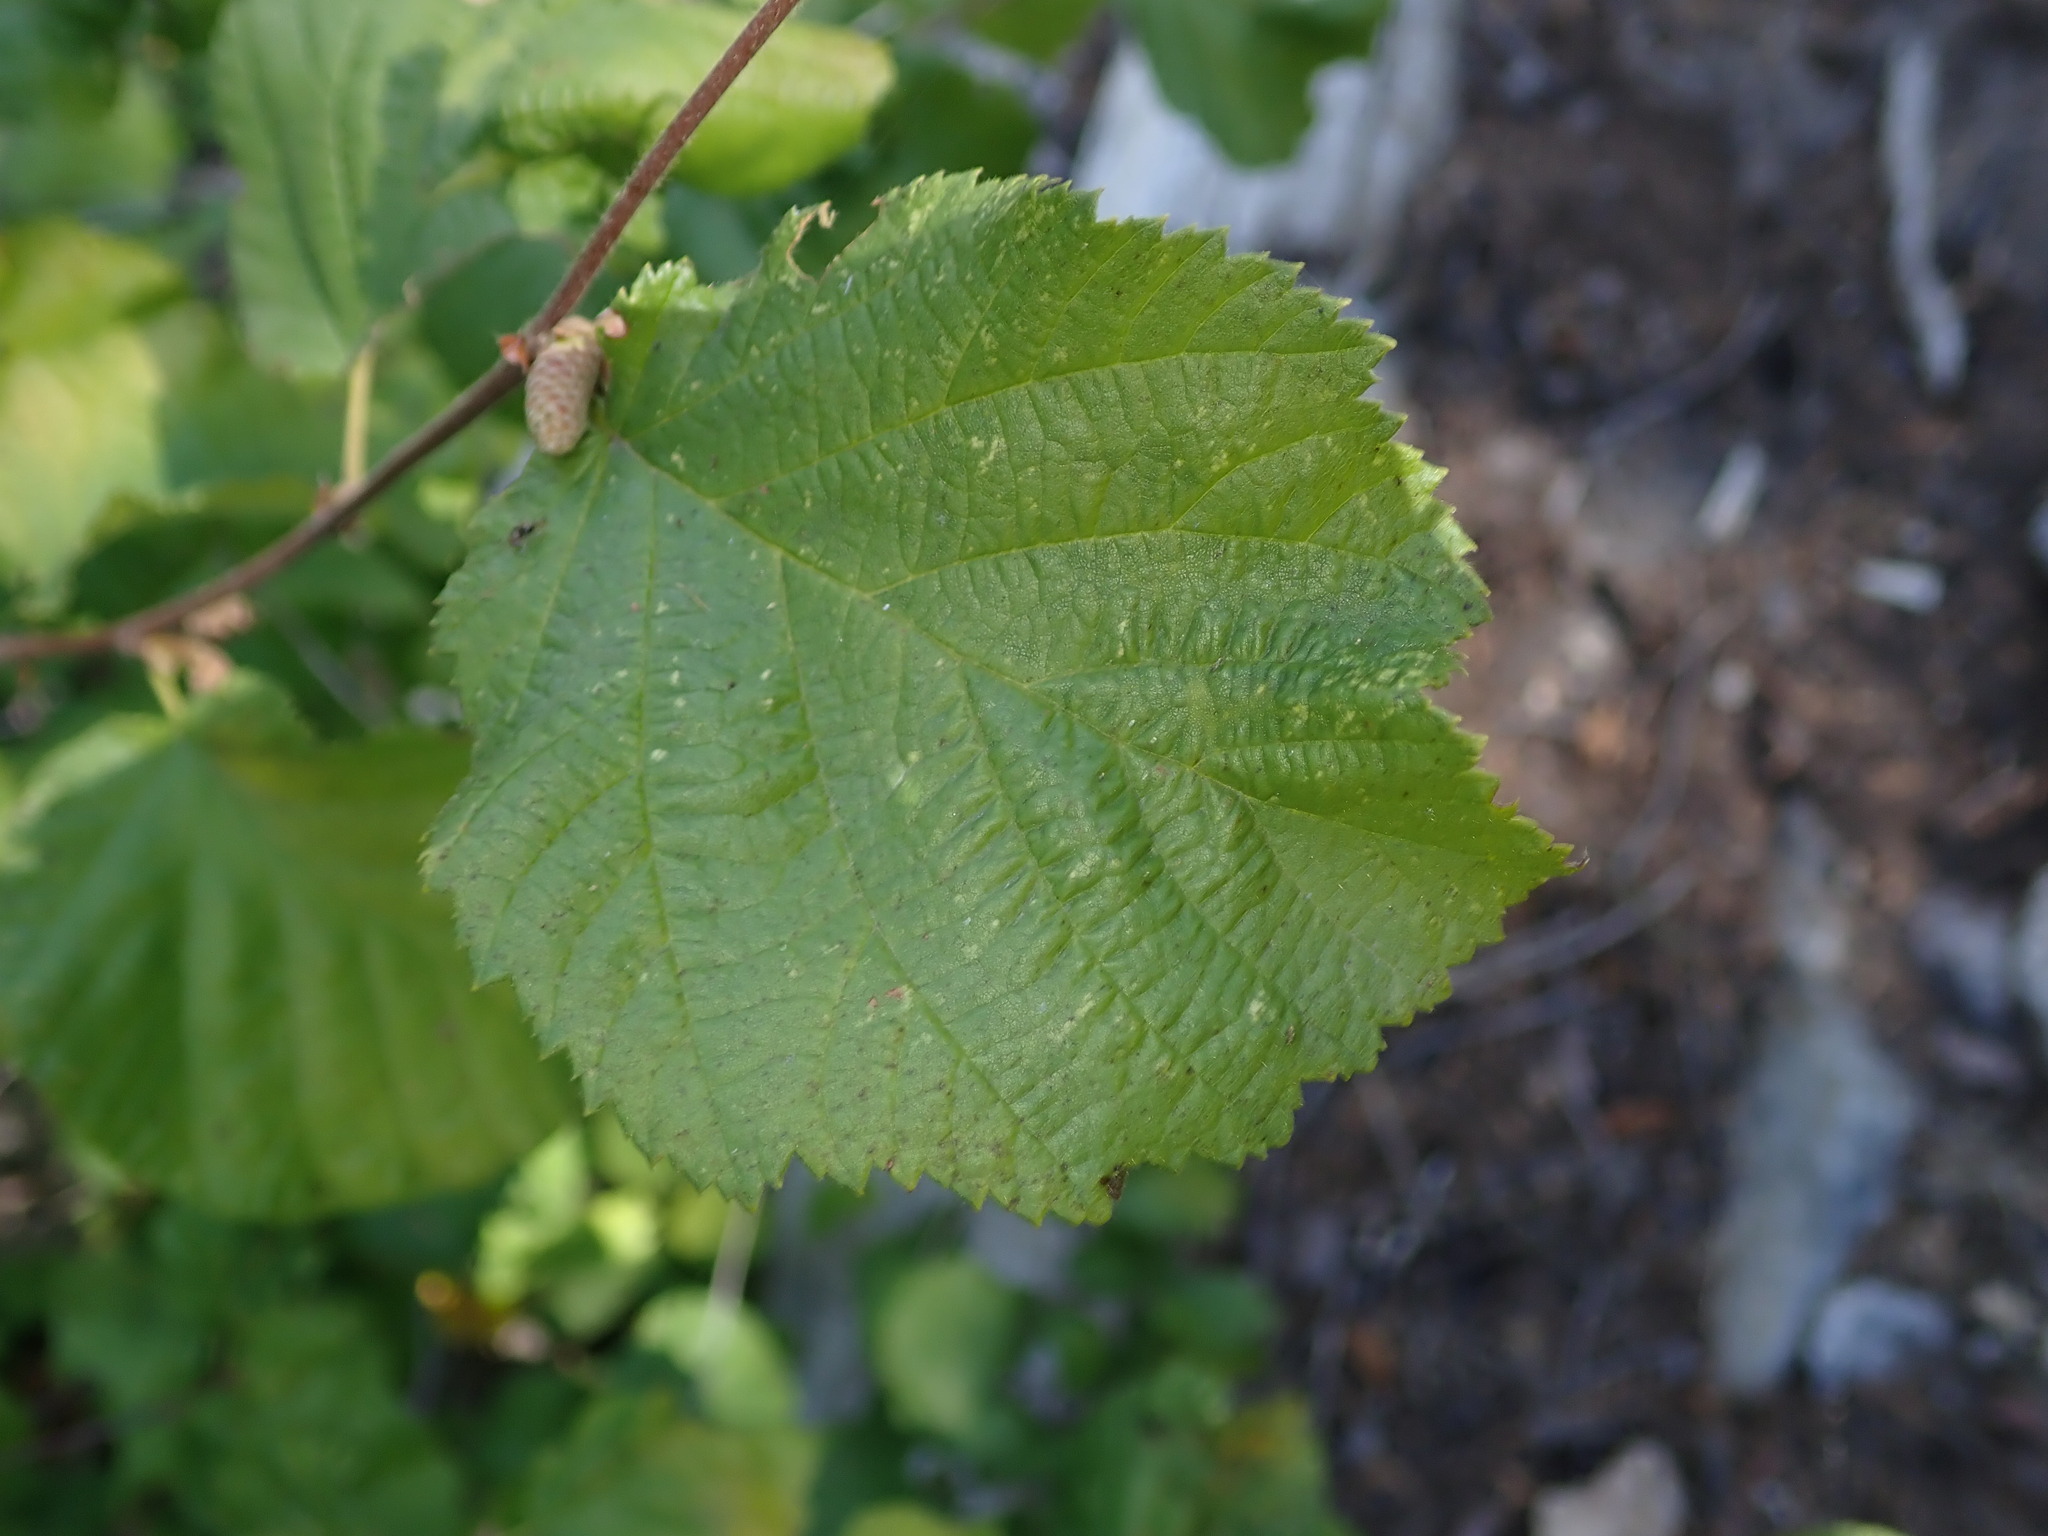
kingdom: Plantae
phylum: Tracheophyta
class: Magnoliopsida
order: Fagales
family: Betulaceae
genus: Corylus
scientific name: Corylus cornuta
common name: Beaked hazel
